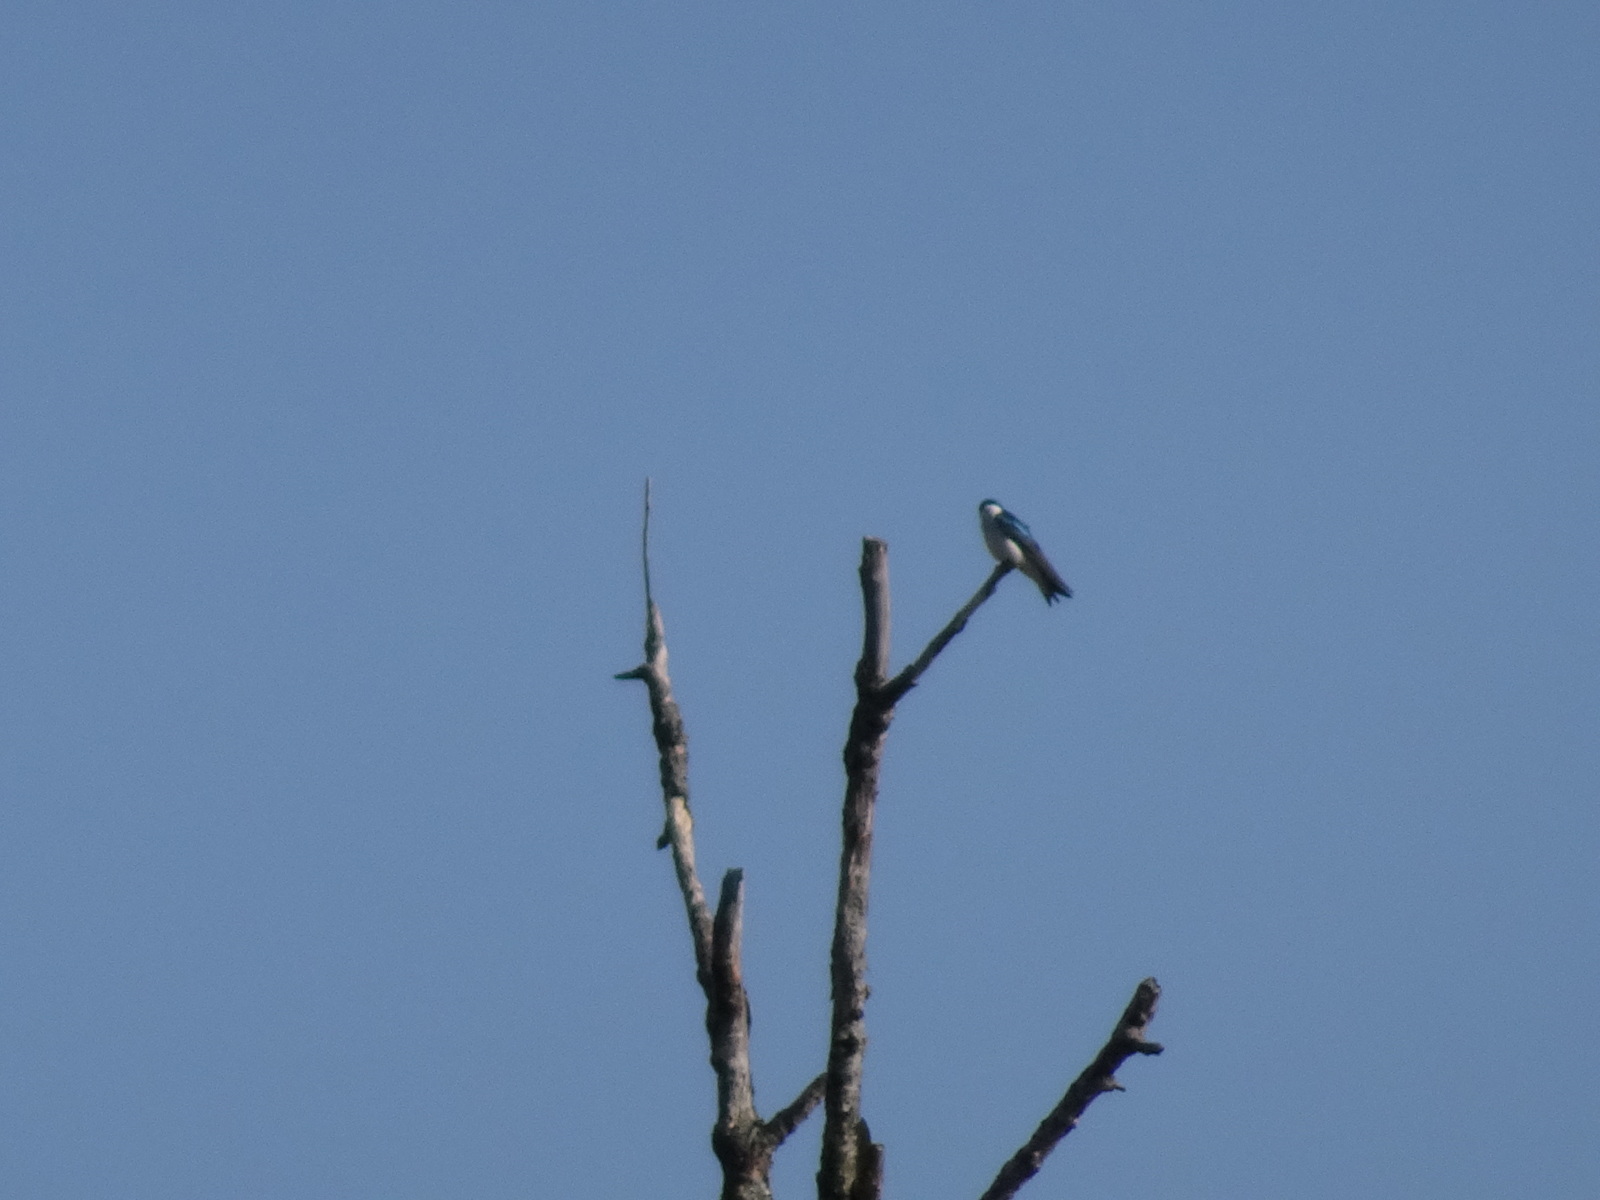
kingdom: Animalia
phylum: Chordata
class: Aves
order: Passeriformes
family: Hirundinidae
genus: Tachycineta
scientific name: Tachycineta bicolor
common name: Tree swallow
